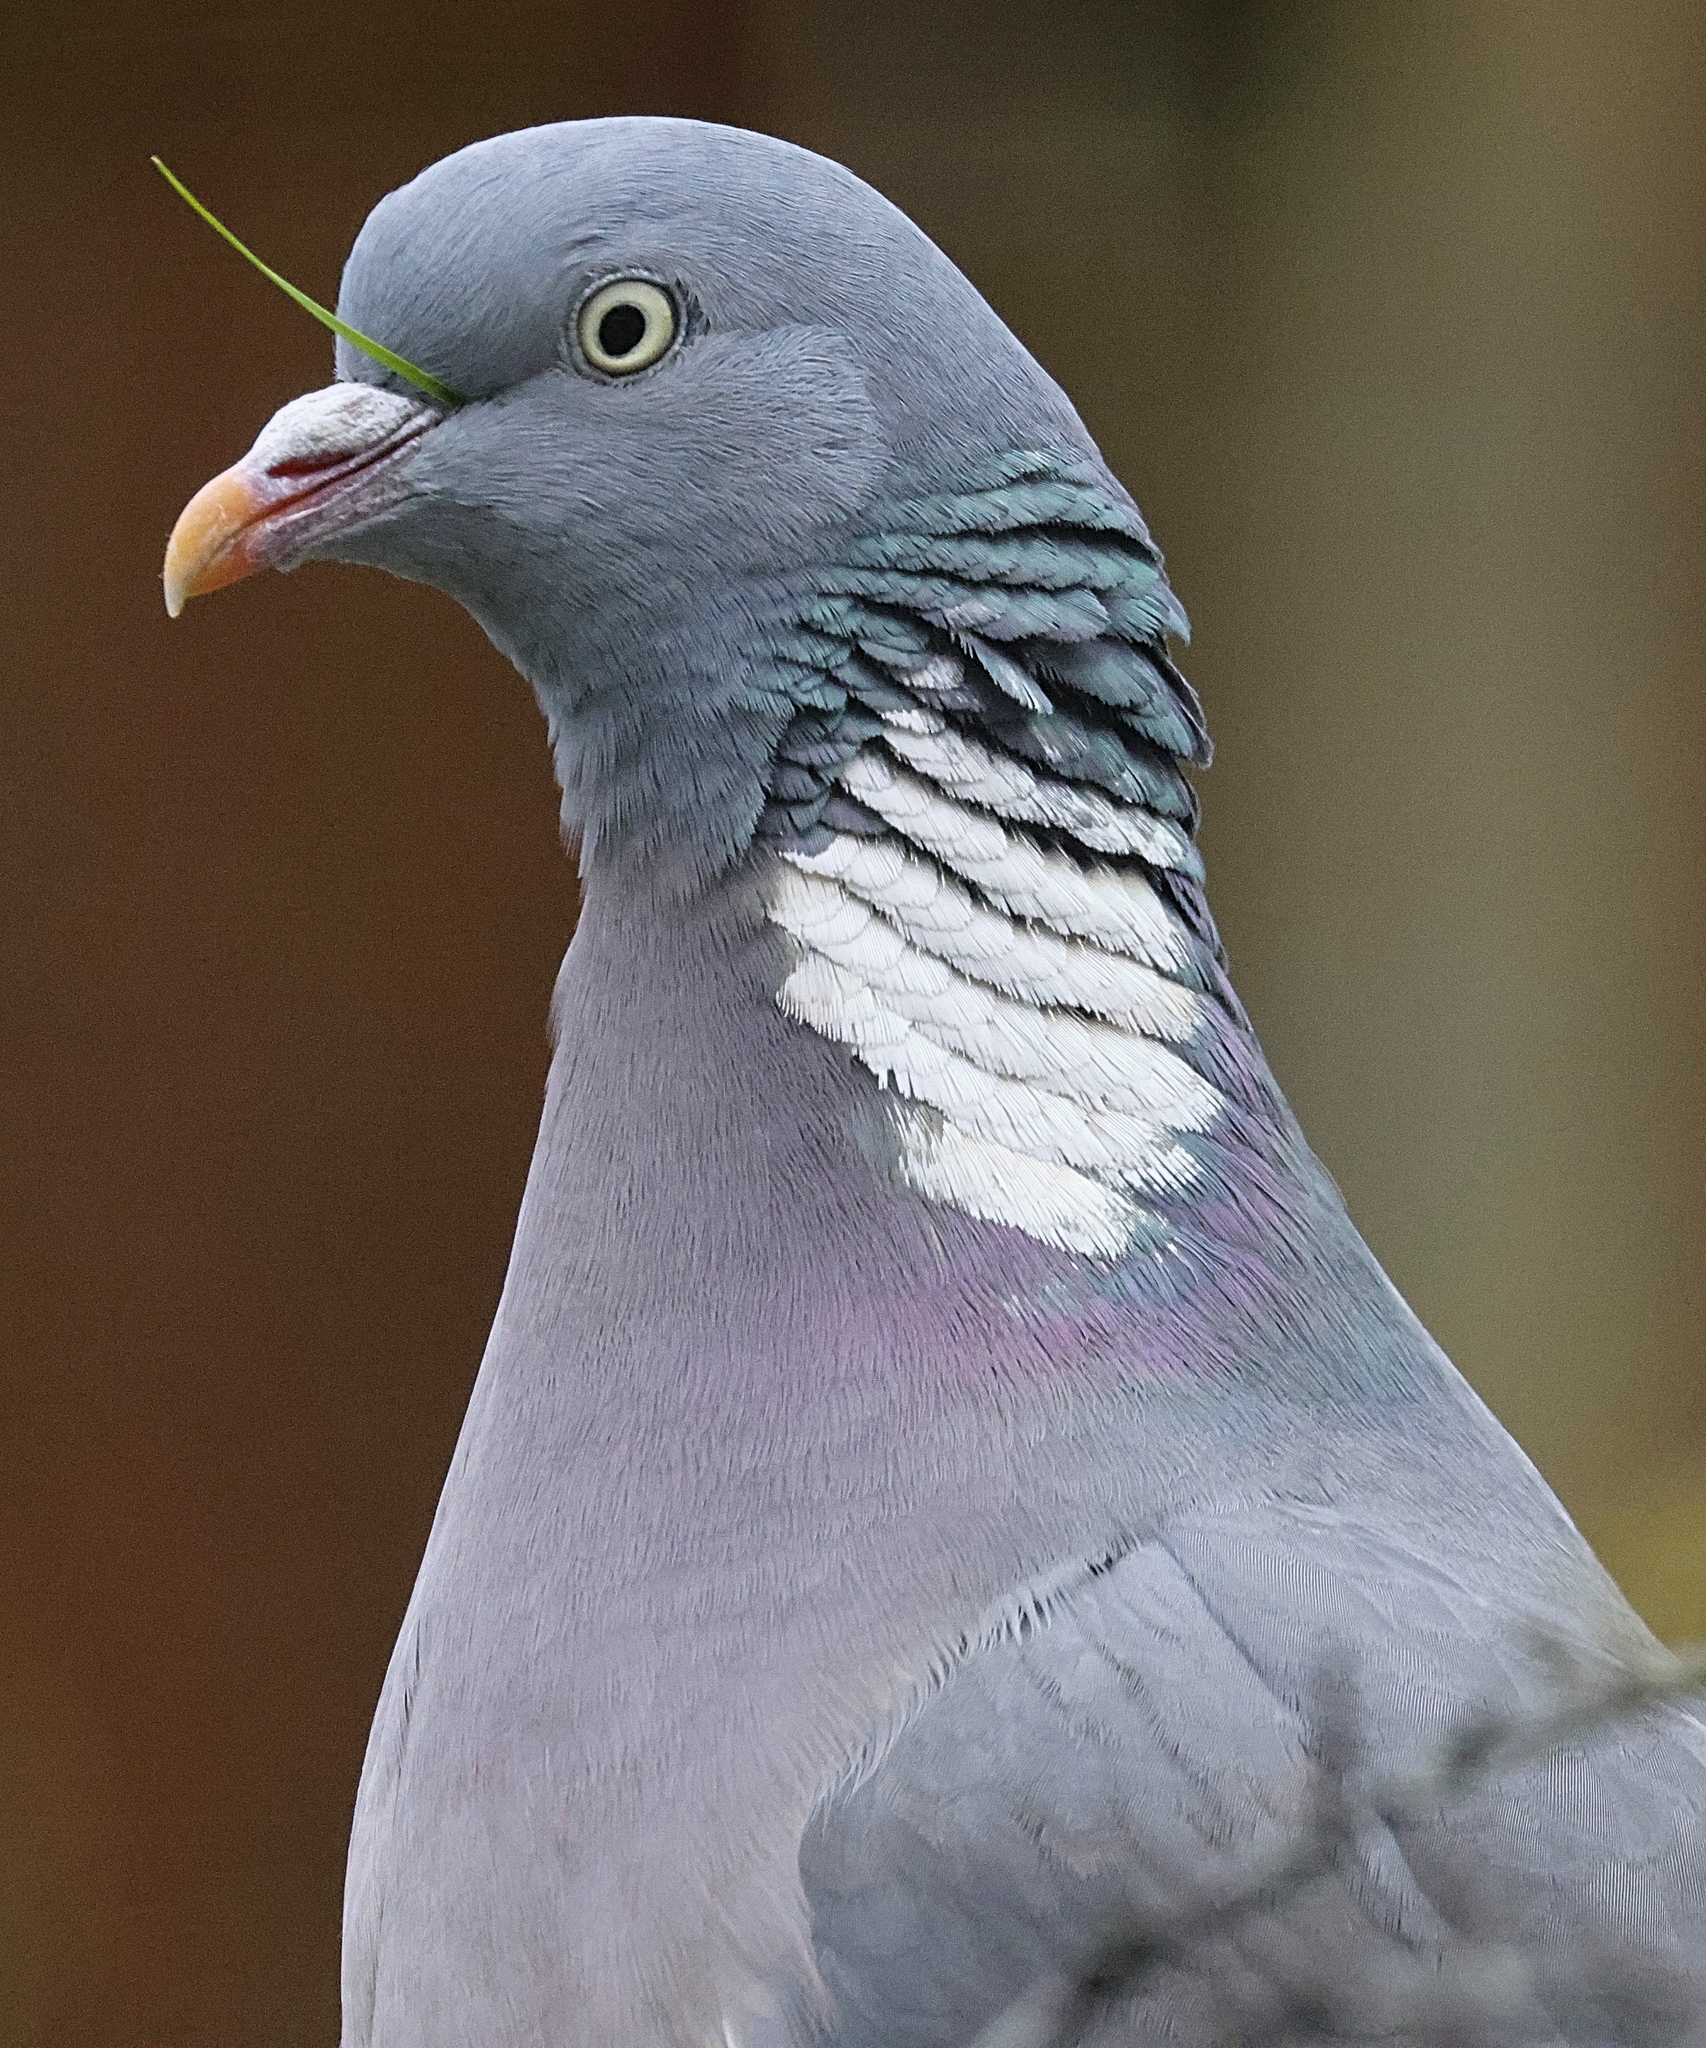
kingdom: Animalia
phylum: Chordata
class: Aves
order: Columbiformes
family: Columbidae
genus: Columba
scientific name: Columba palumbus
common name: Common wood pigeon
